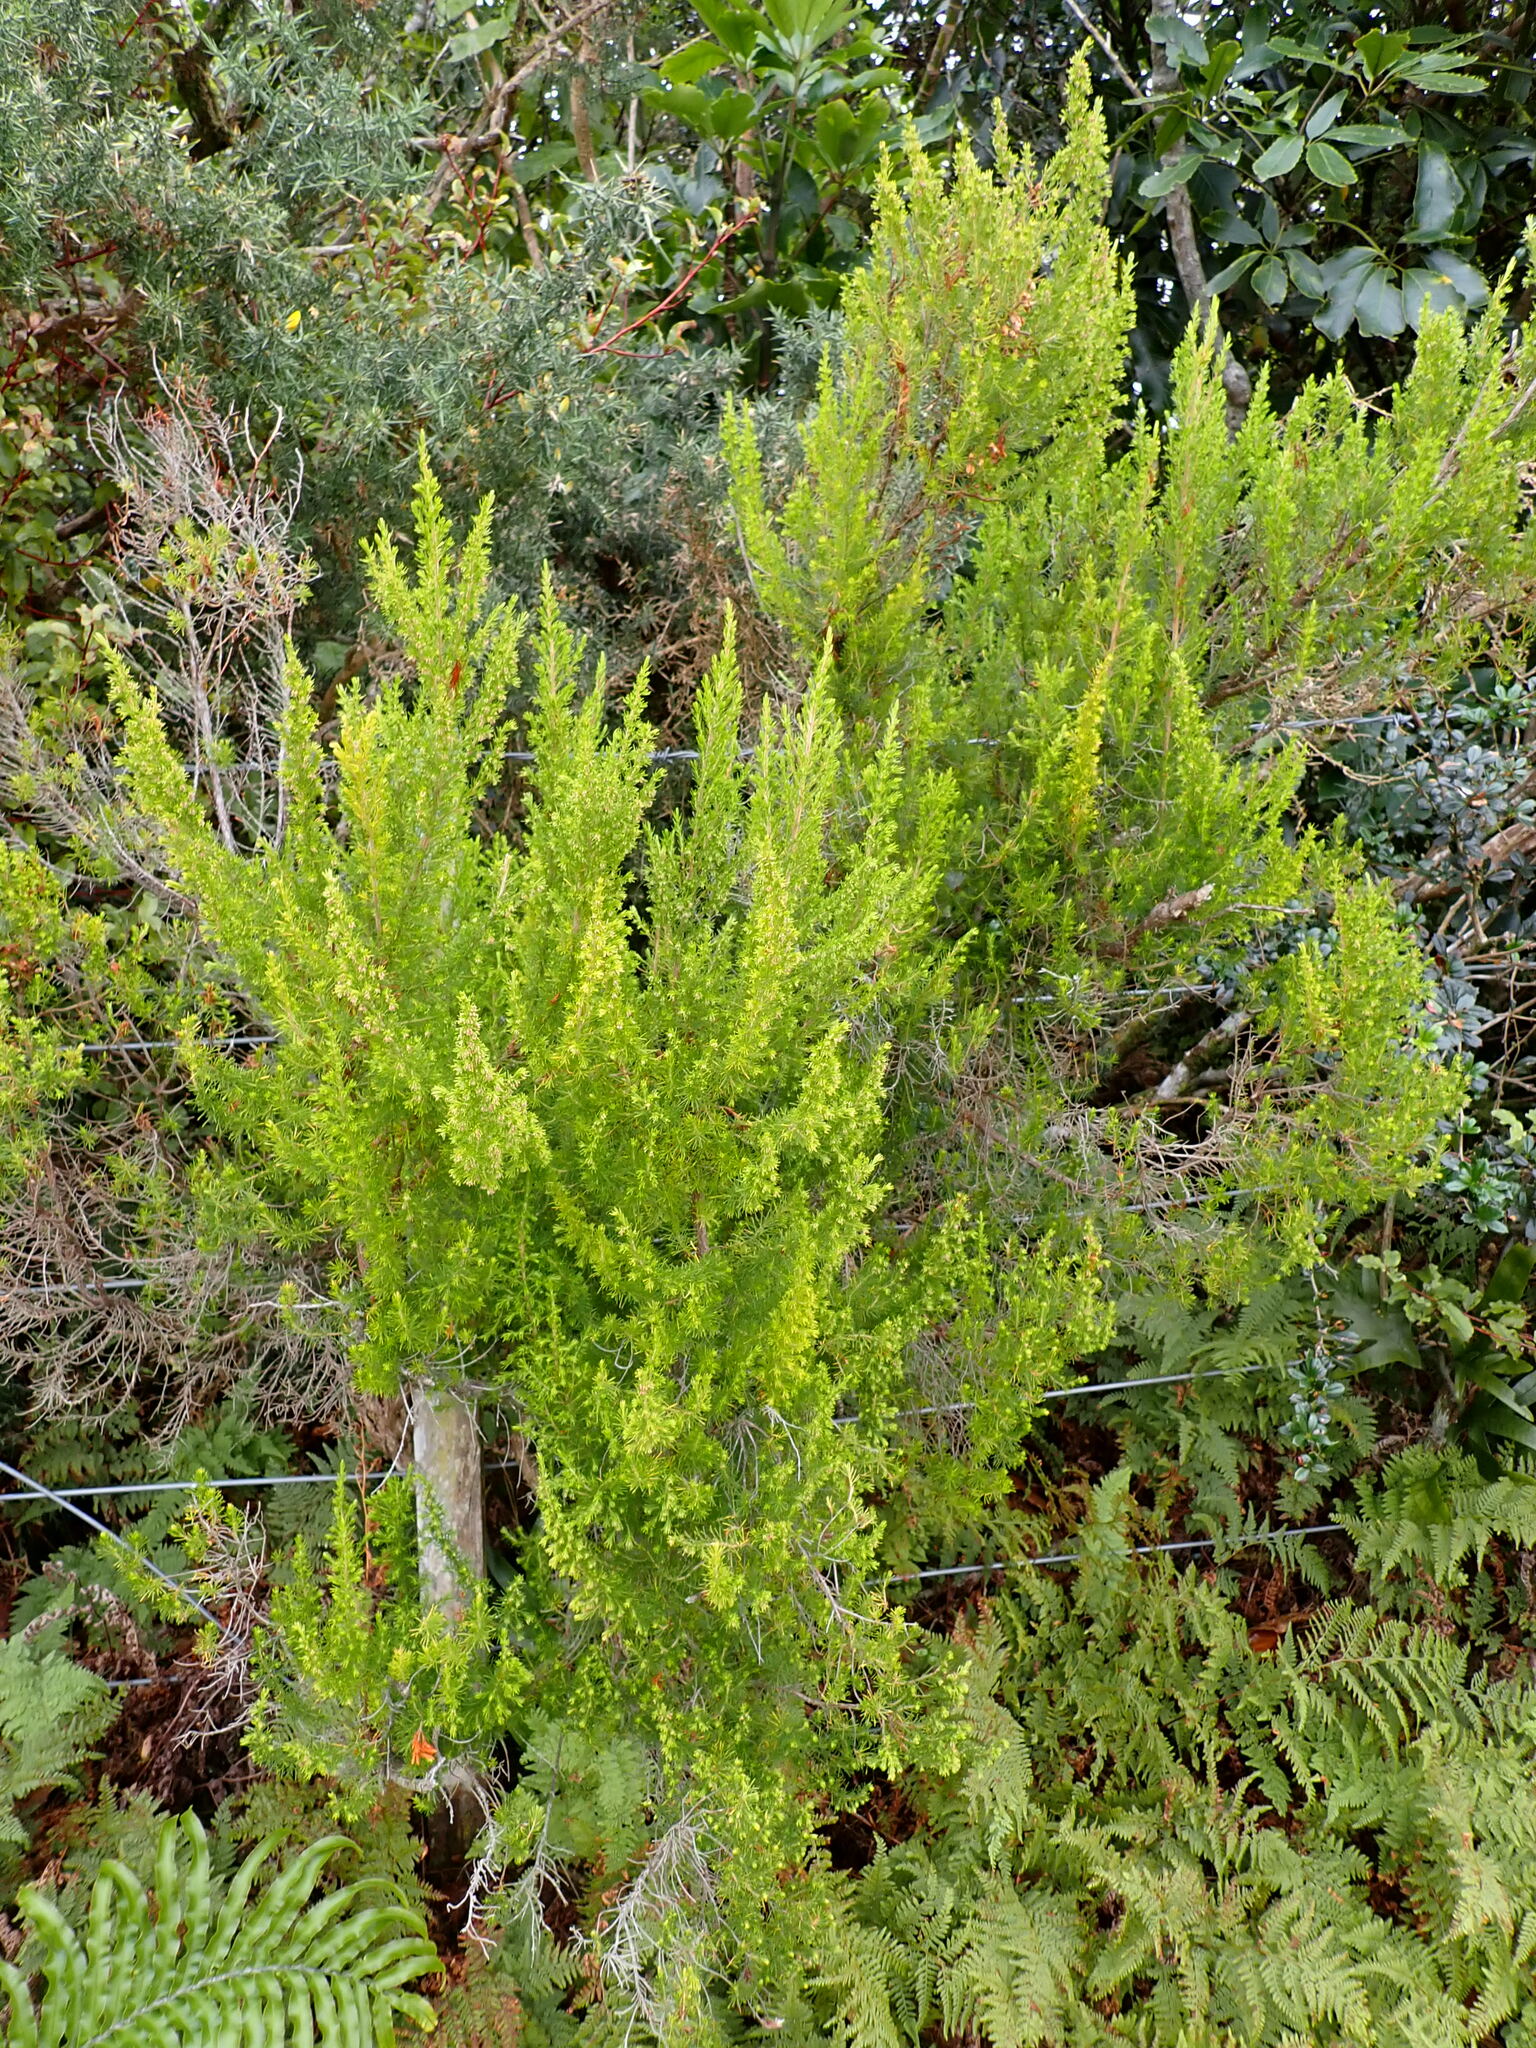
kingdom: Plantae
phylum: Tracheophyta
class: Magnoliopsida
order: Ericales
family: Ericaceae
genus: Erica
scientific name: Erica lusitanica
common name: Spanish heath
